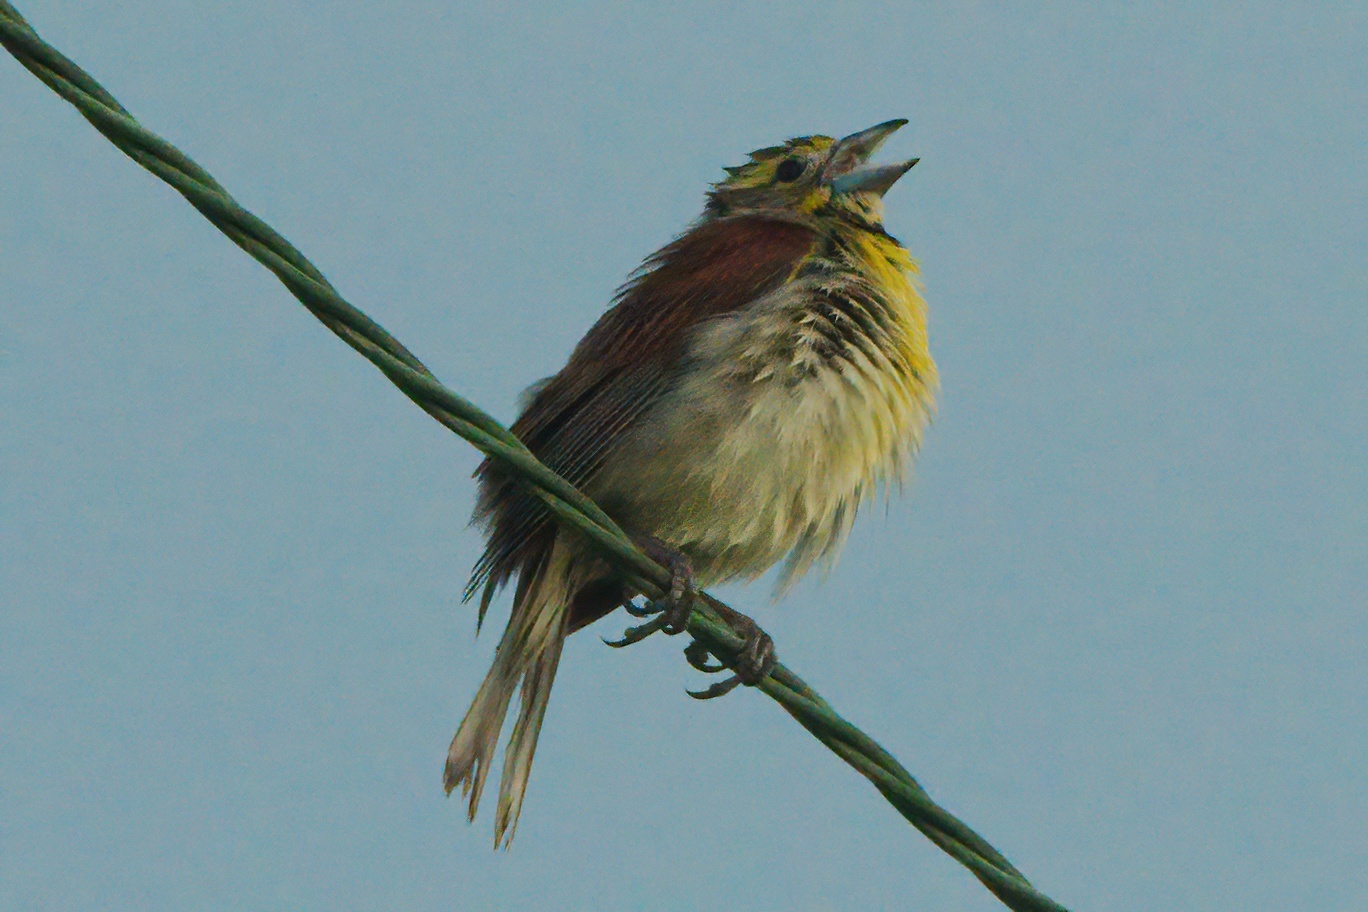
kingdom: Animalia
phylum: Chordata
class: Aves
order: Passeriformes
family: Cardinalidae
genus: Spiza
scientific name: Spiza americana
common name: Dickcissel
